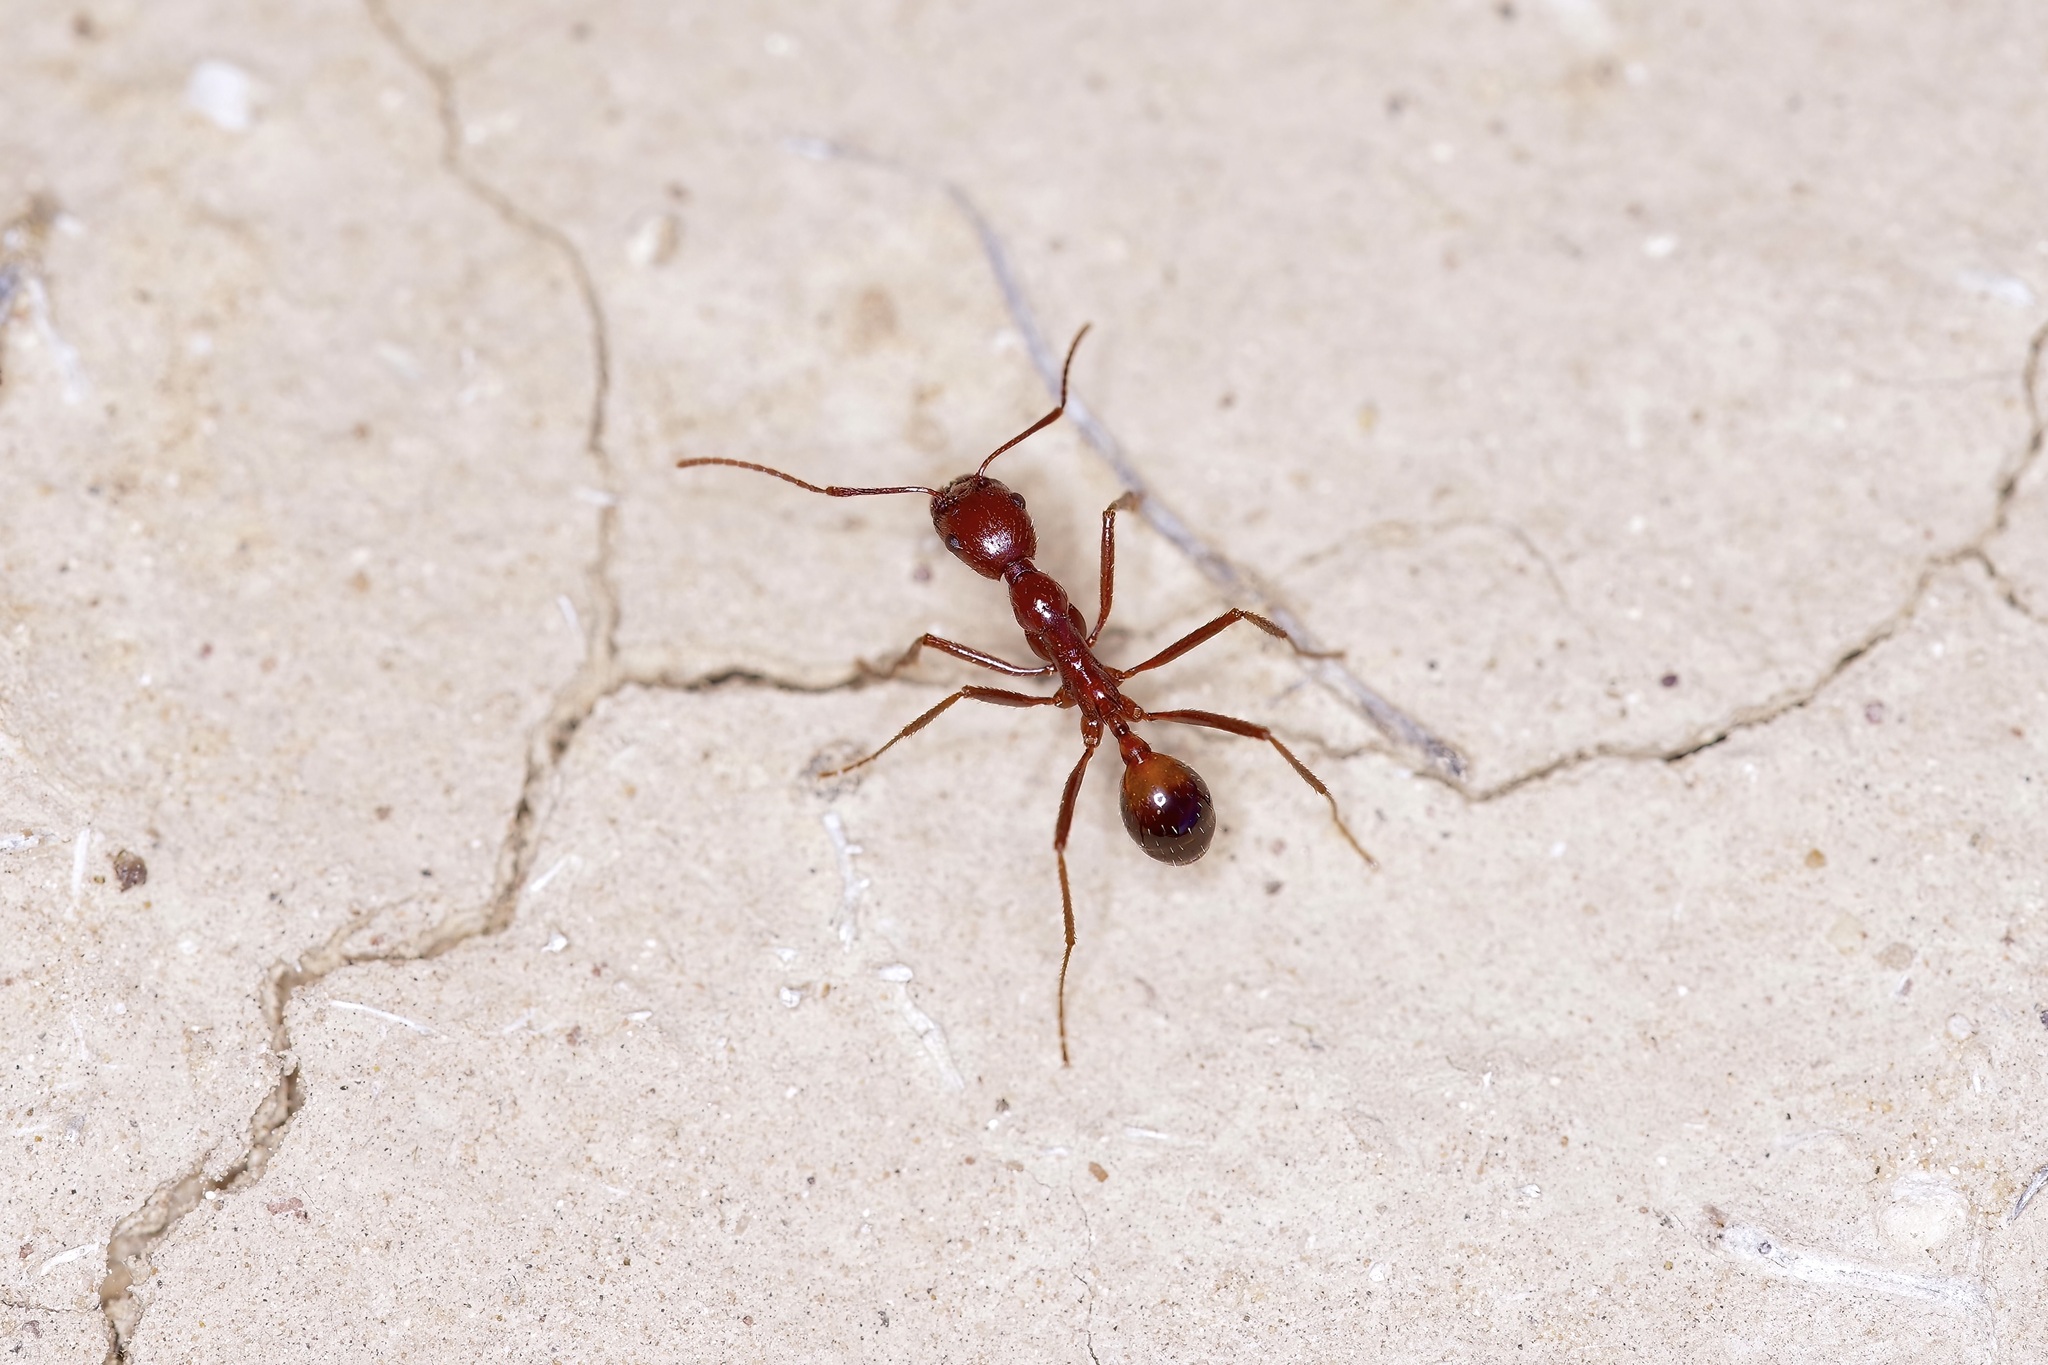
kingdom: Animalia
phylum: Arthropoda
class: Insecta
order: Hymenoptera
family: Formicidae
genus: Novomessor
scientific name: Novomessor cockerelli
